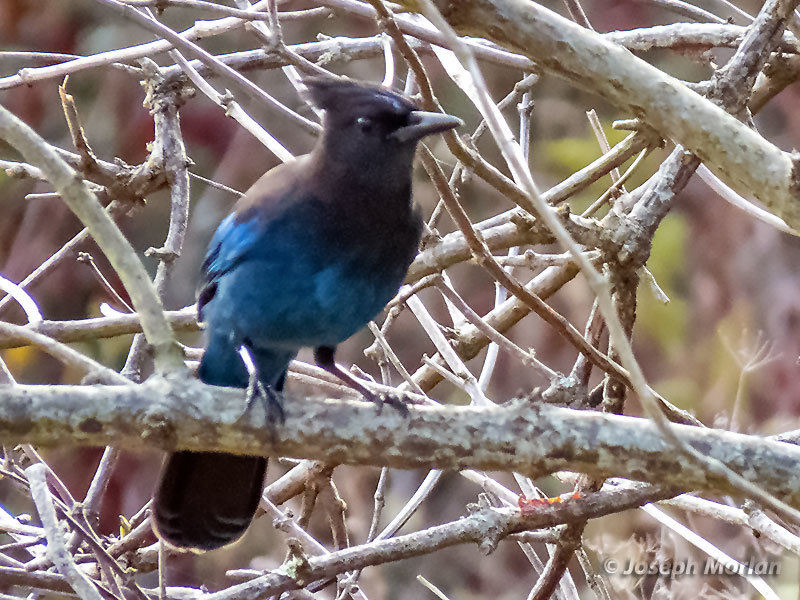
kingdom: Animalia
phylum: Chordata
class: Aves
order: Passeriformes
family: Corvidae
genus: Cyanocitta
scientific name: Cyanocitta stelleri
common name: Steller's jay
